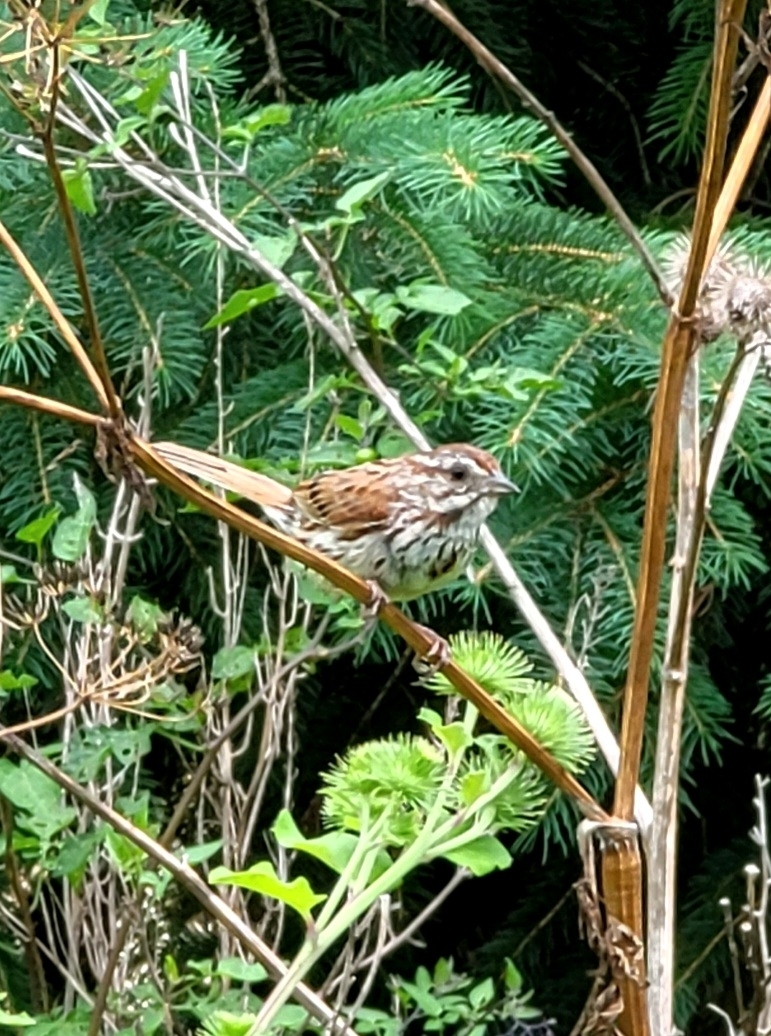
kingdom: Animalia
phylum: Chordata
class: Aves
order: Passeriformes
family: Passerellidae
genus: Melospiza
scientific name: Melospiza melodia
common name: Song sparrow
